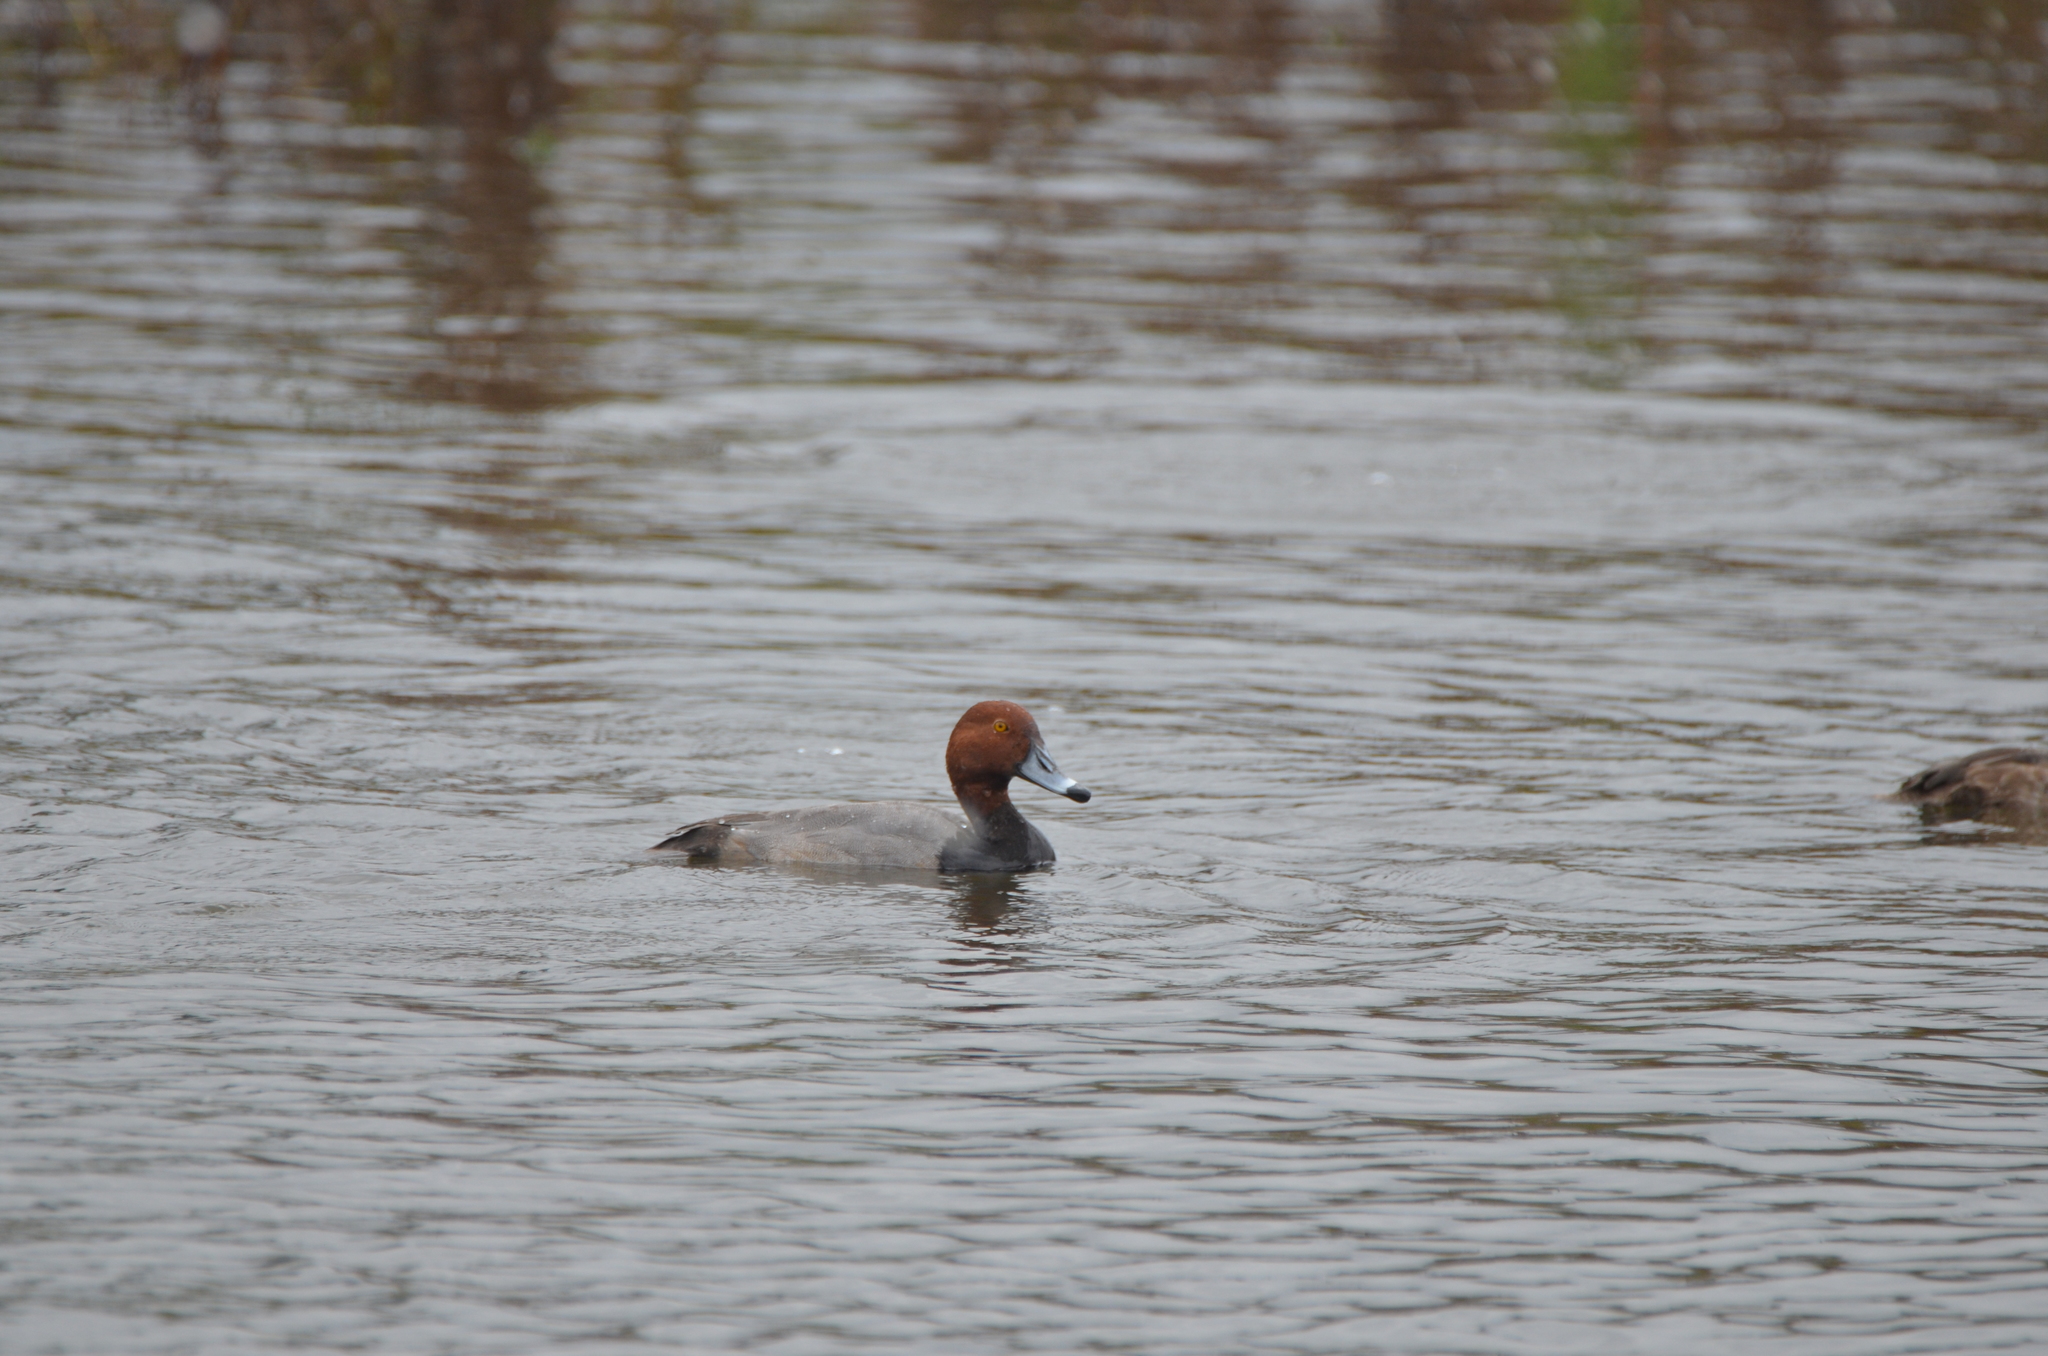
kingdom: Animalia
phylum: Chordata
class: Aves
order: Anseriformes
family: Anatidae
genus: Aythya
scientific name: Aythya americana
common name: Redhead
